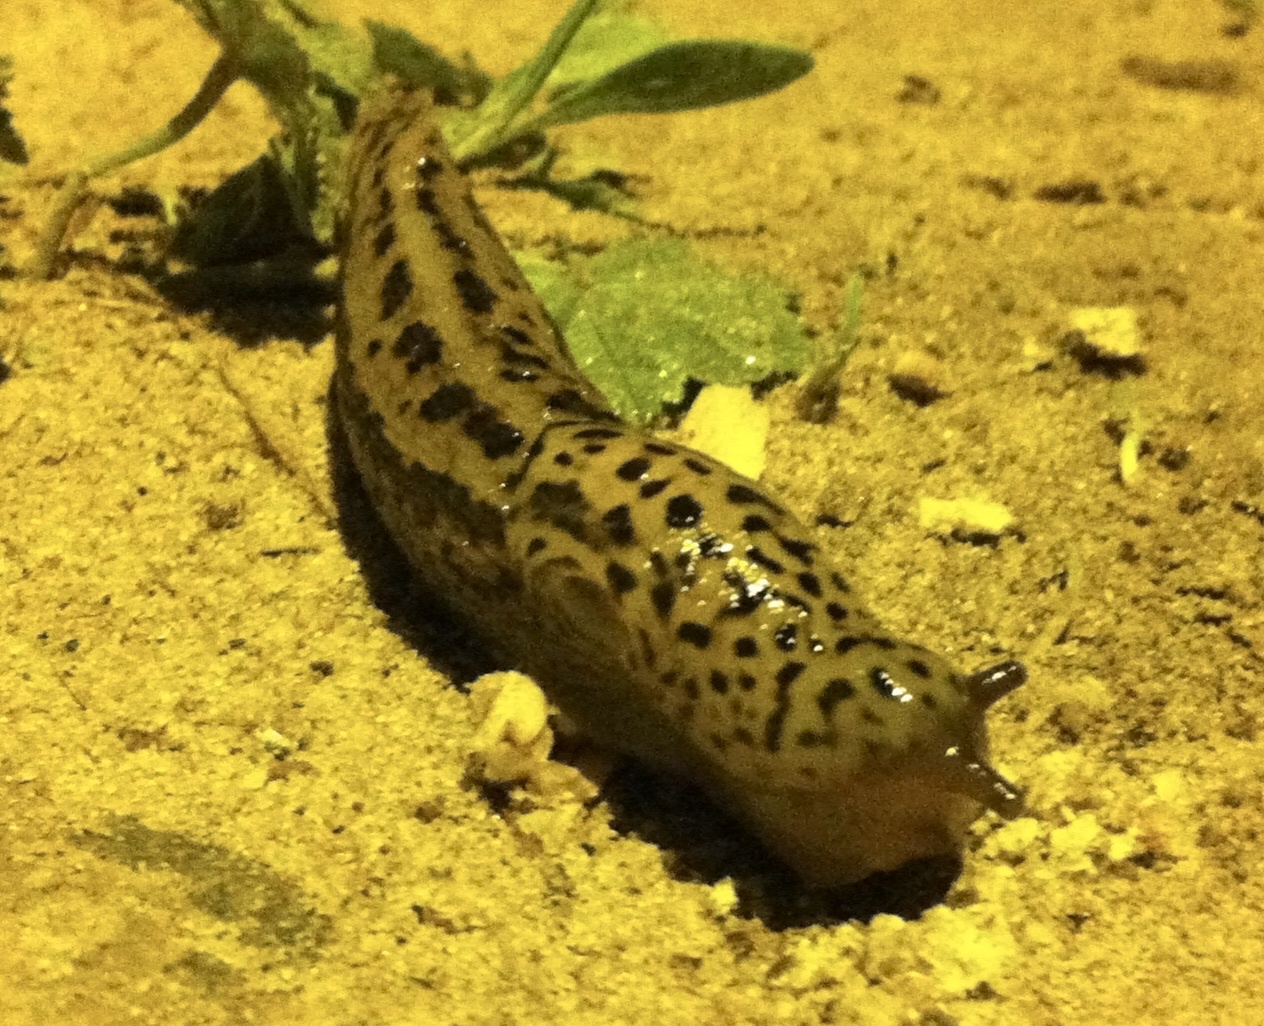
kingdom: Animalia
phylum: Mollusca
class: Gastropoda
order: Stylommatophora
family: Limacidae
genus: Limax
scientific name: Limax maximus
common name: Great grey slug
